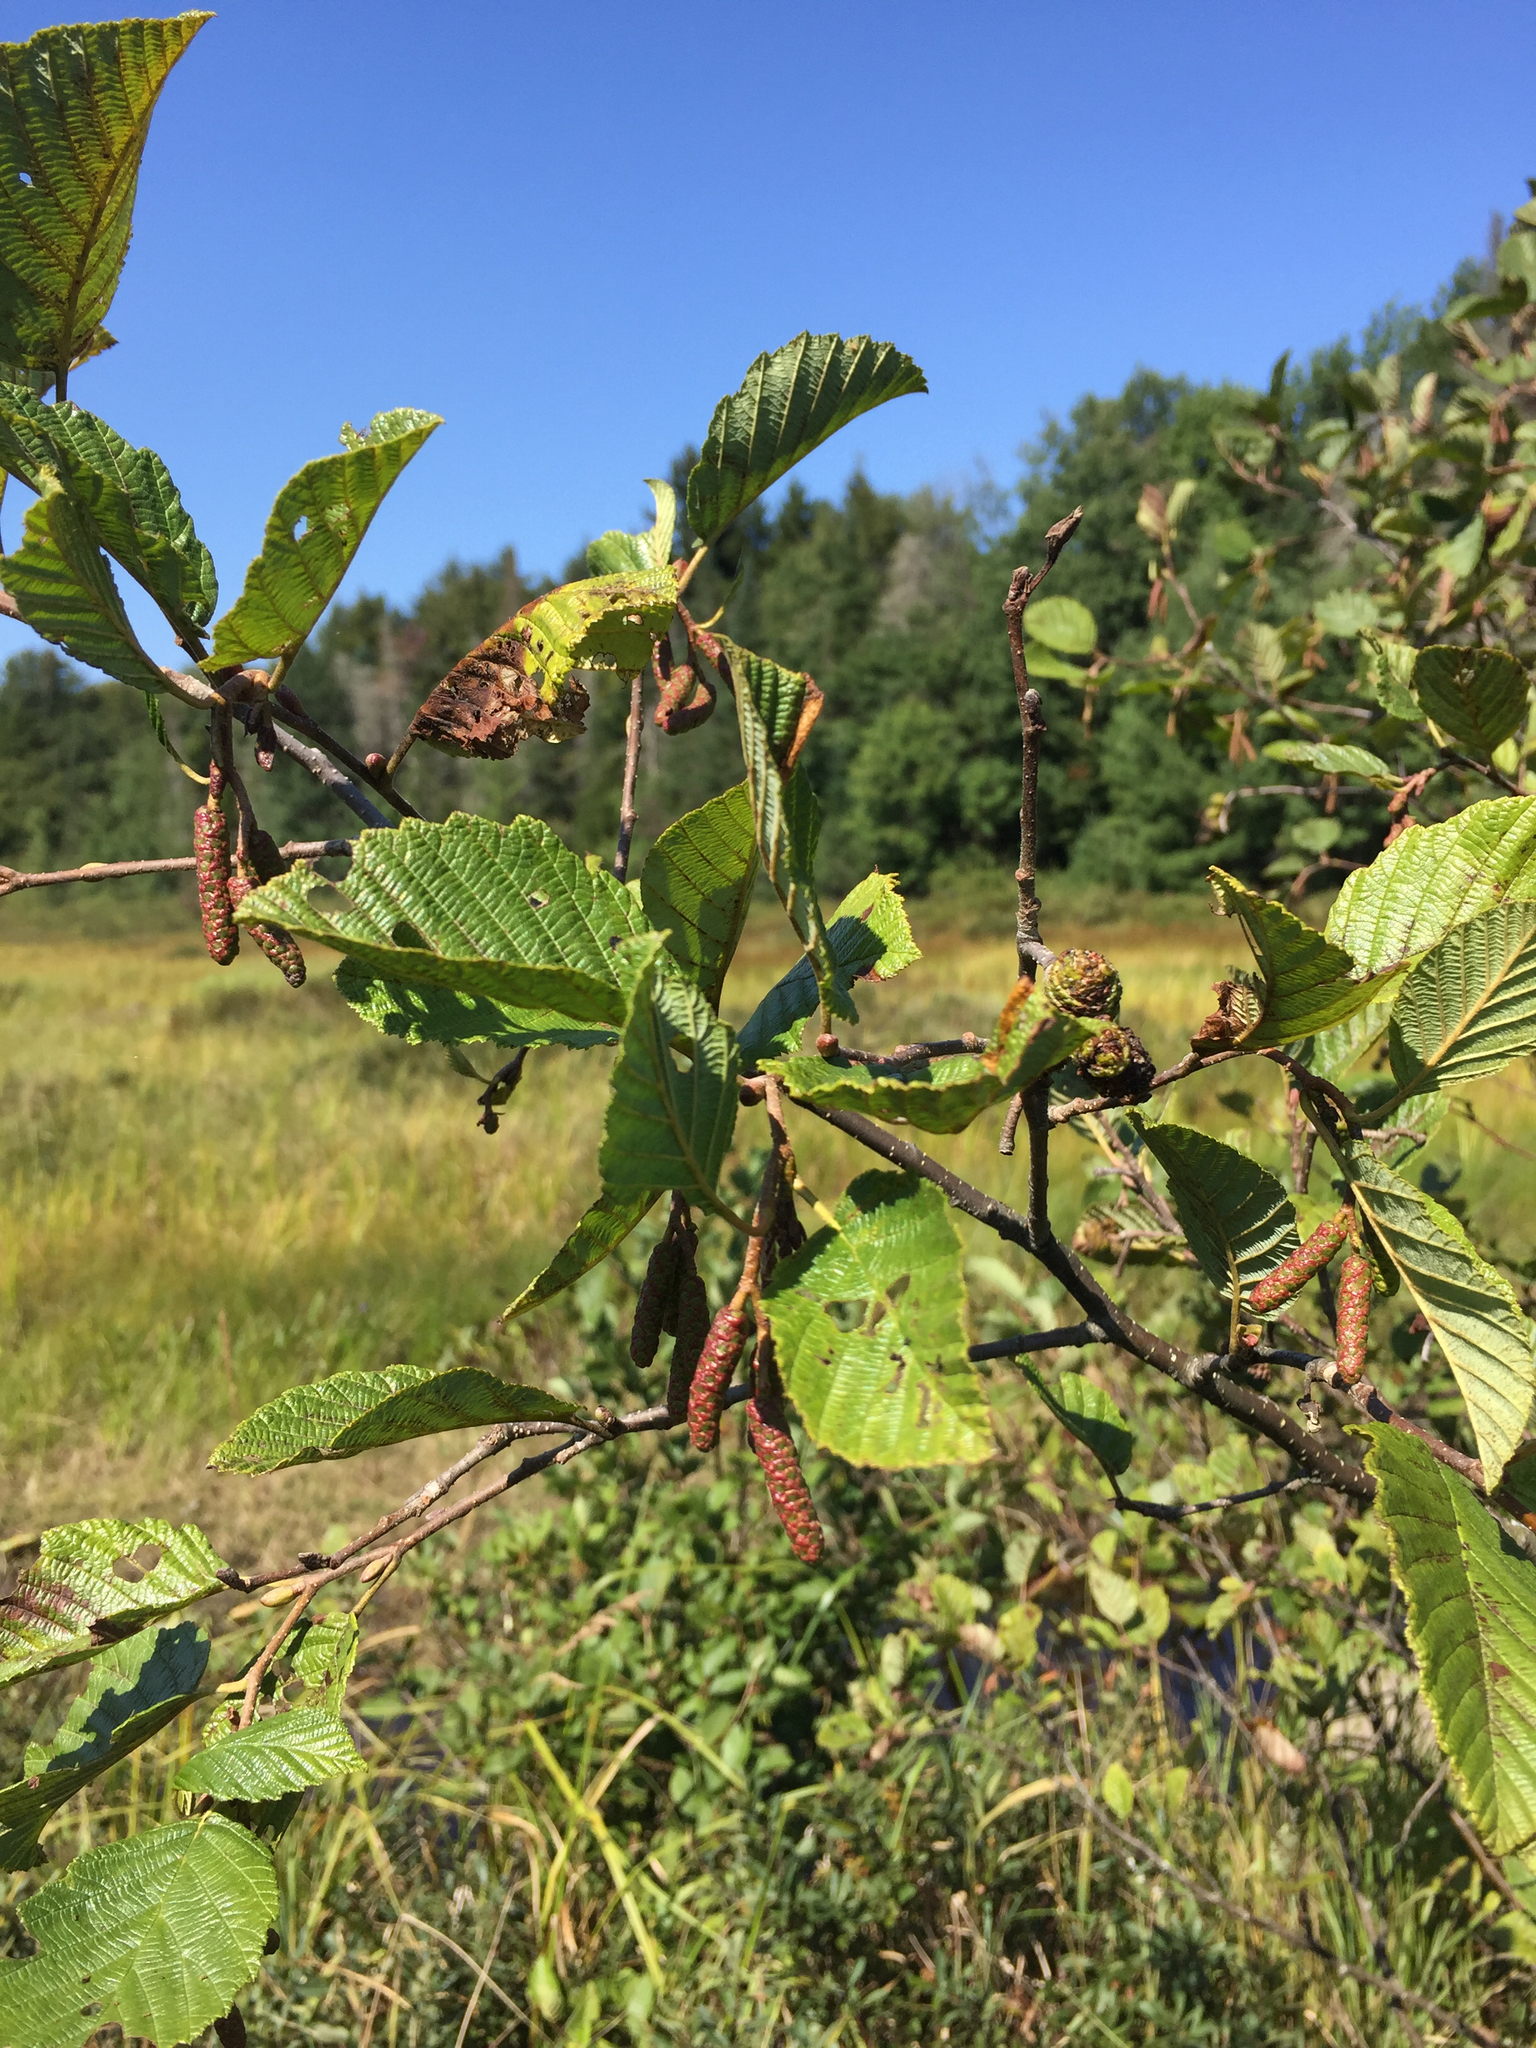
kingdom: Plantae
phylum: Tracheophyta
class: Magnoliopsida
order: Fagales
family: Betulaceae
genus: Alnus
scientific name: Alnus incana
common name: Grey alder
